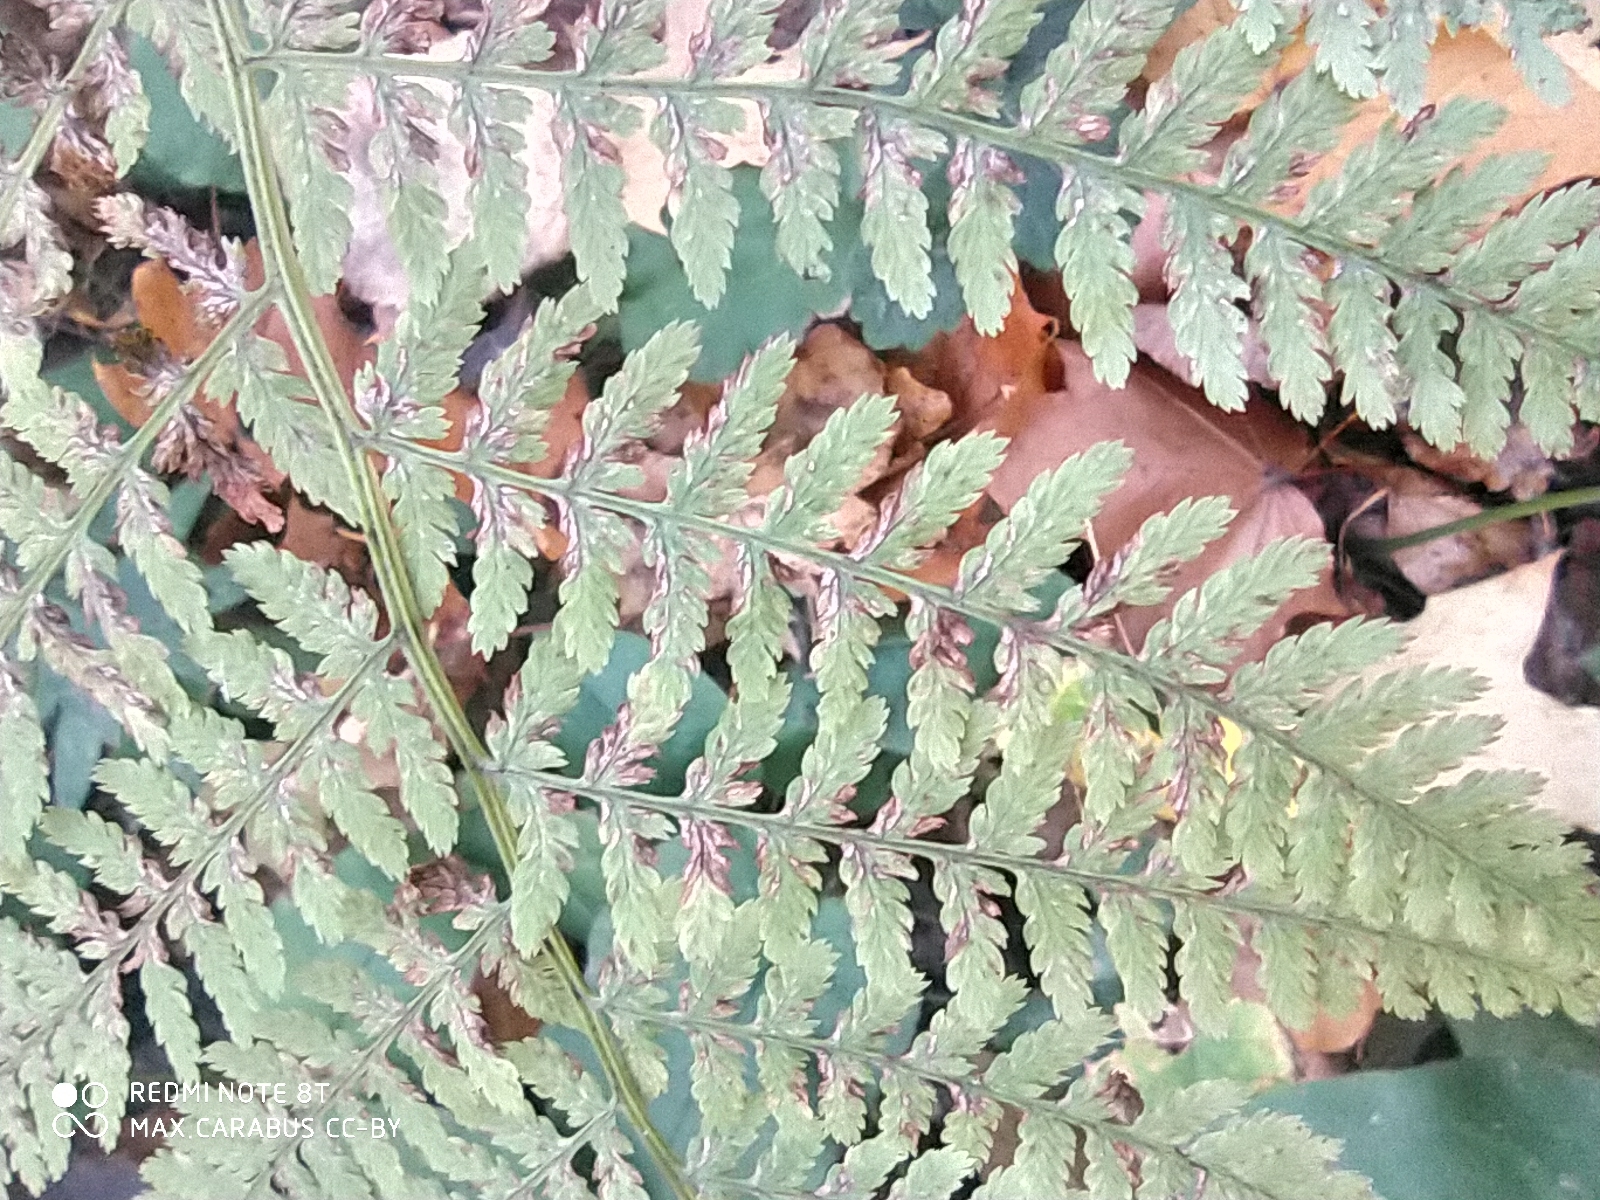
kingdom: Plantae
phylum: Tracheophyta
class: Polypodiopsida
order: Polypodiales
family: Athyriaceae
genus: Athyrium
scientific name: Athyrium filix-femina
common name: Lady fern
